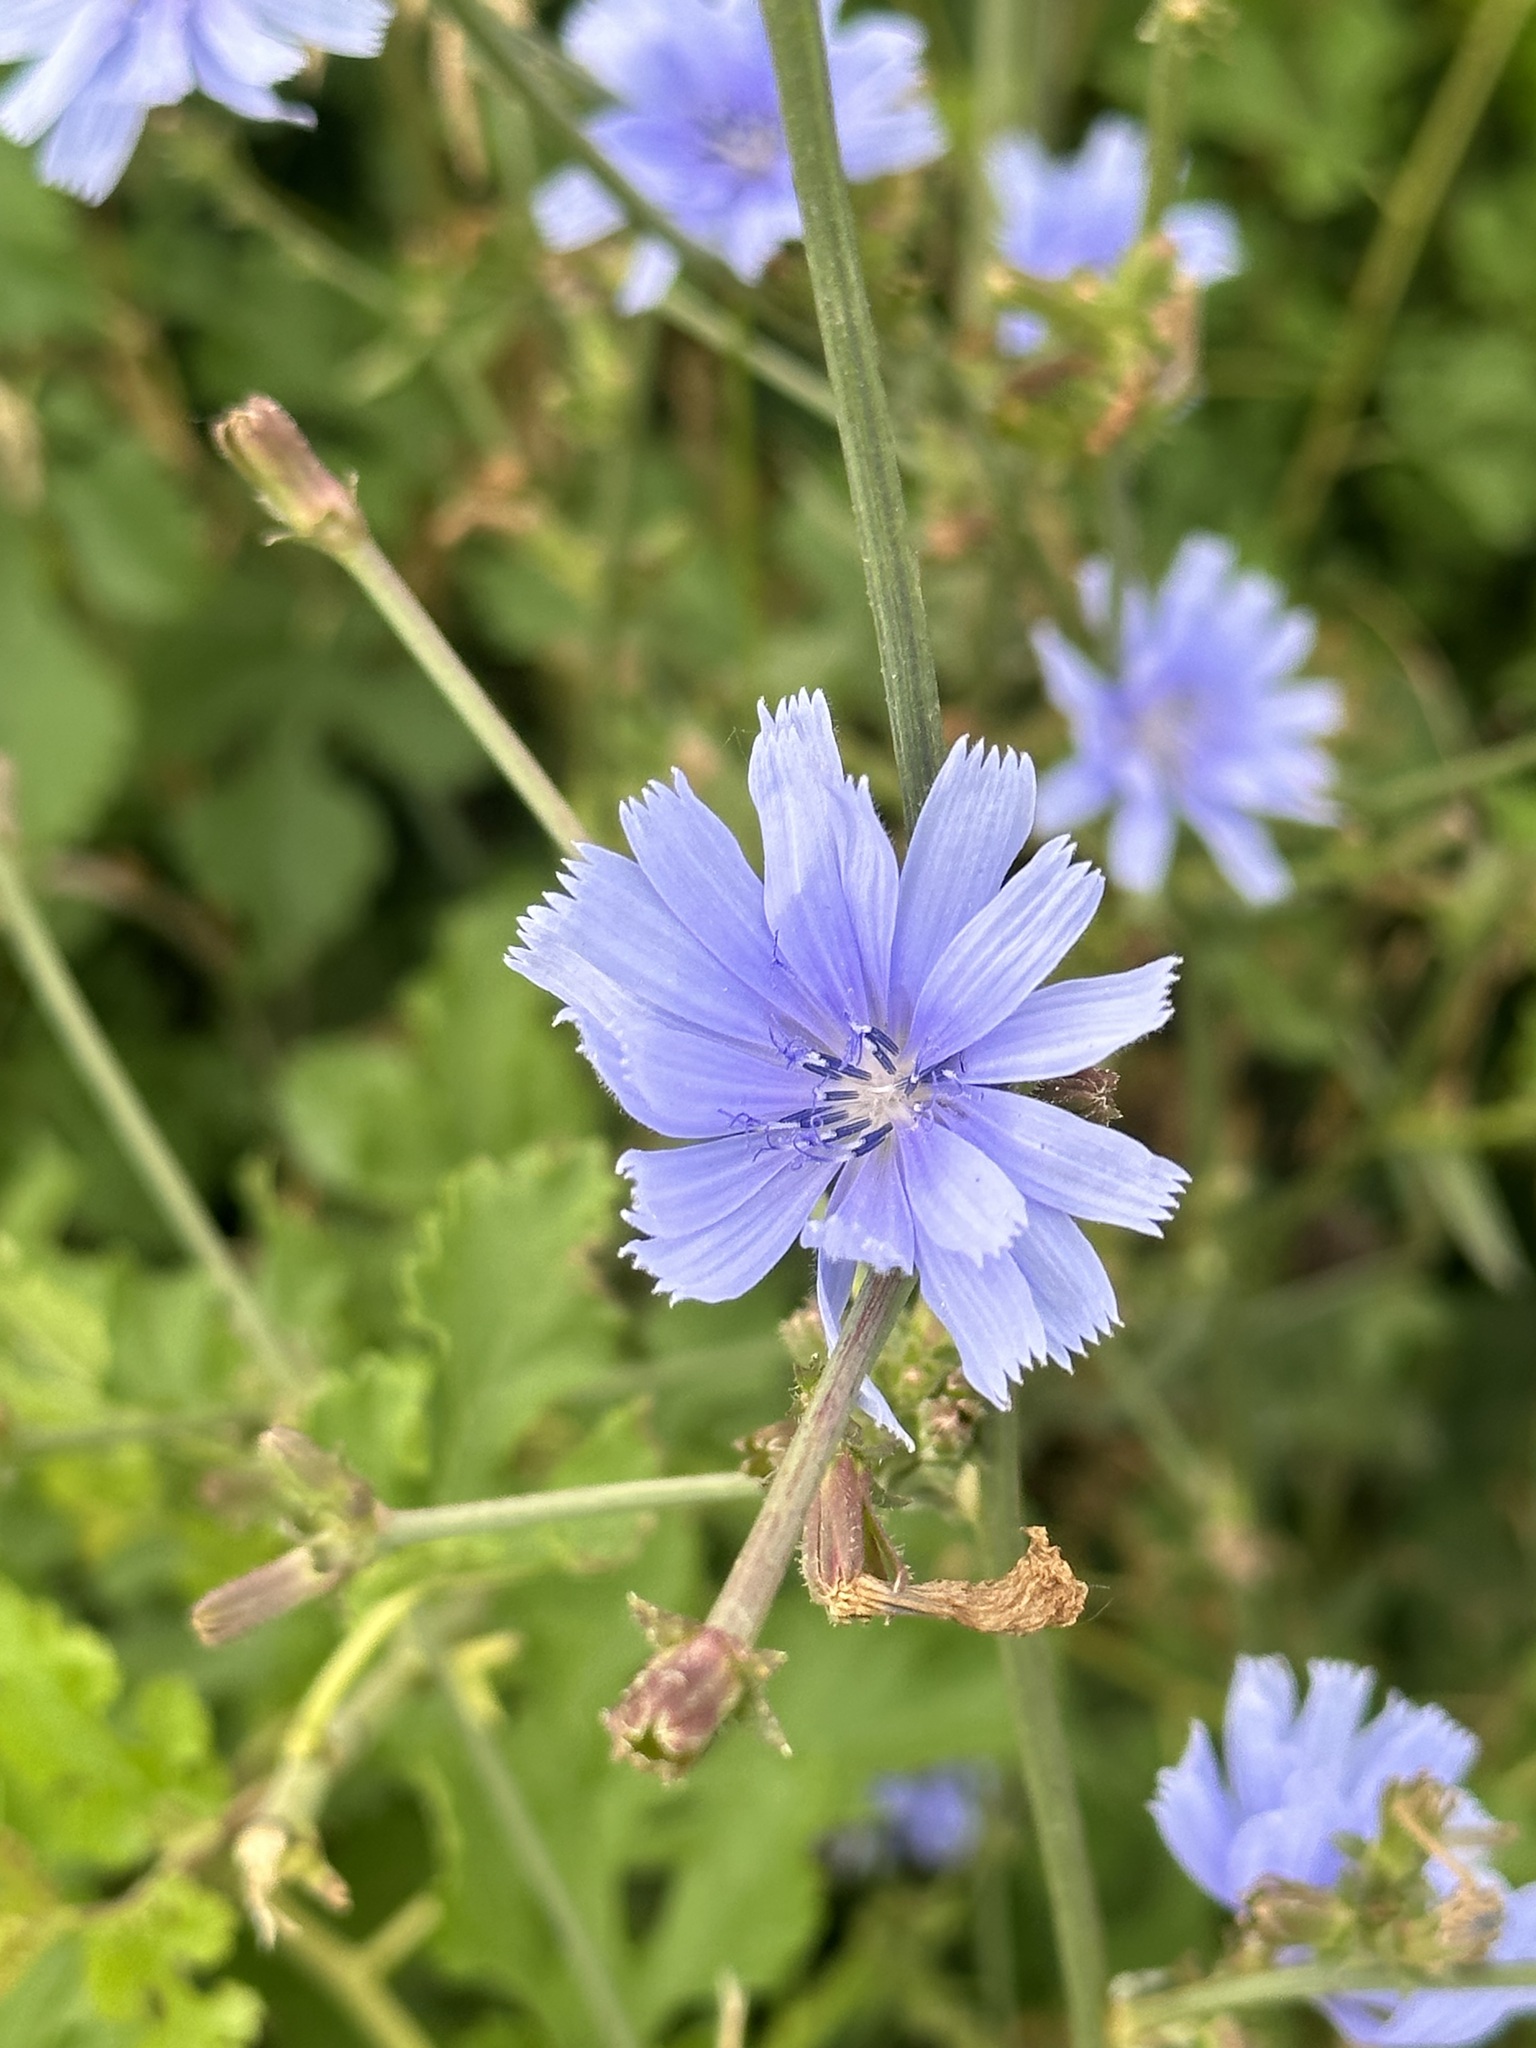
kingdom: Plantae
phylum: Tracheophyta
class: Magnoliopsida
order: Asterales
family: Asteraceae
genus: Cichorium
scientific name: Cichorium intybus
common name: Chicory
